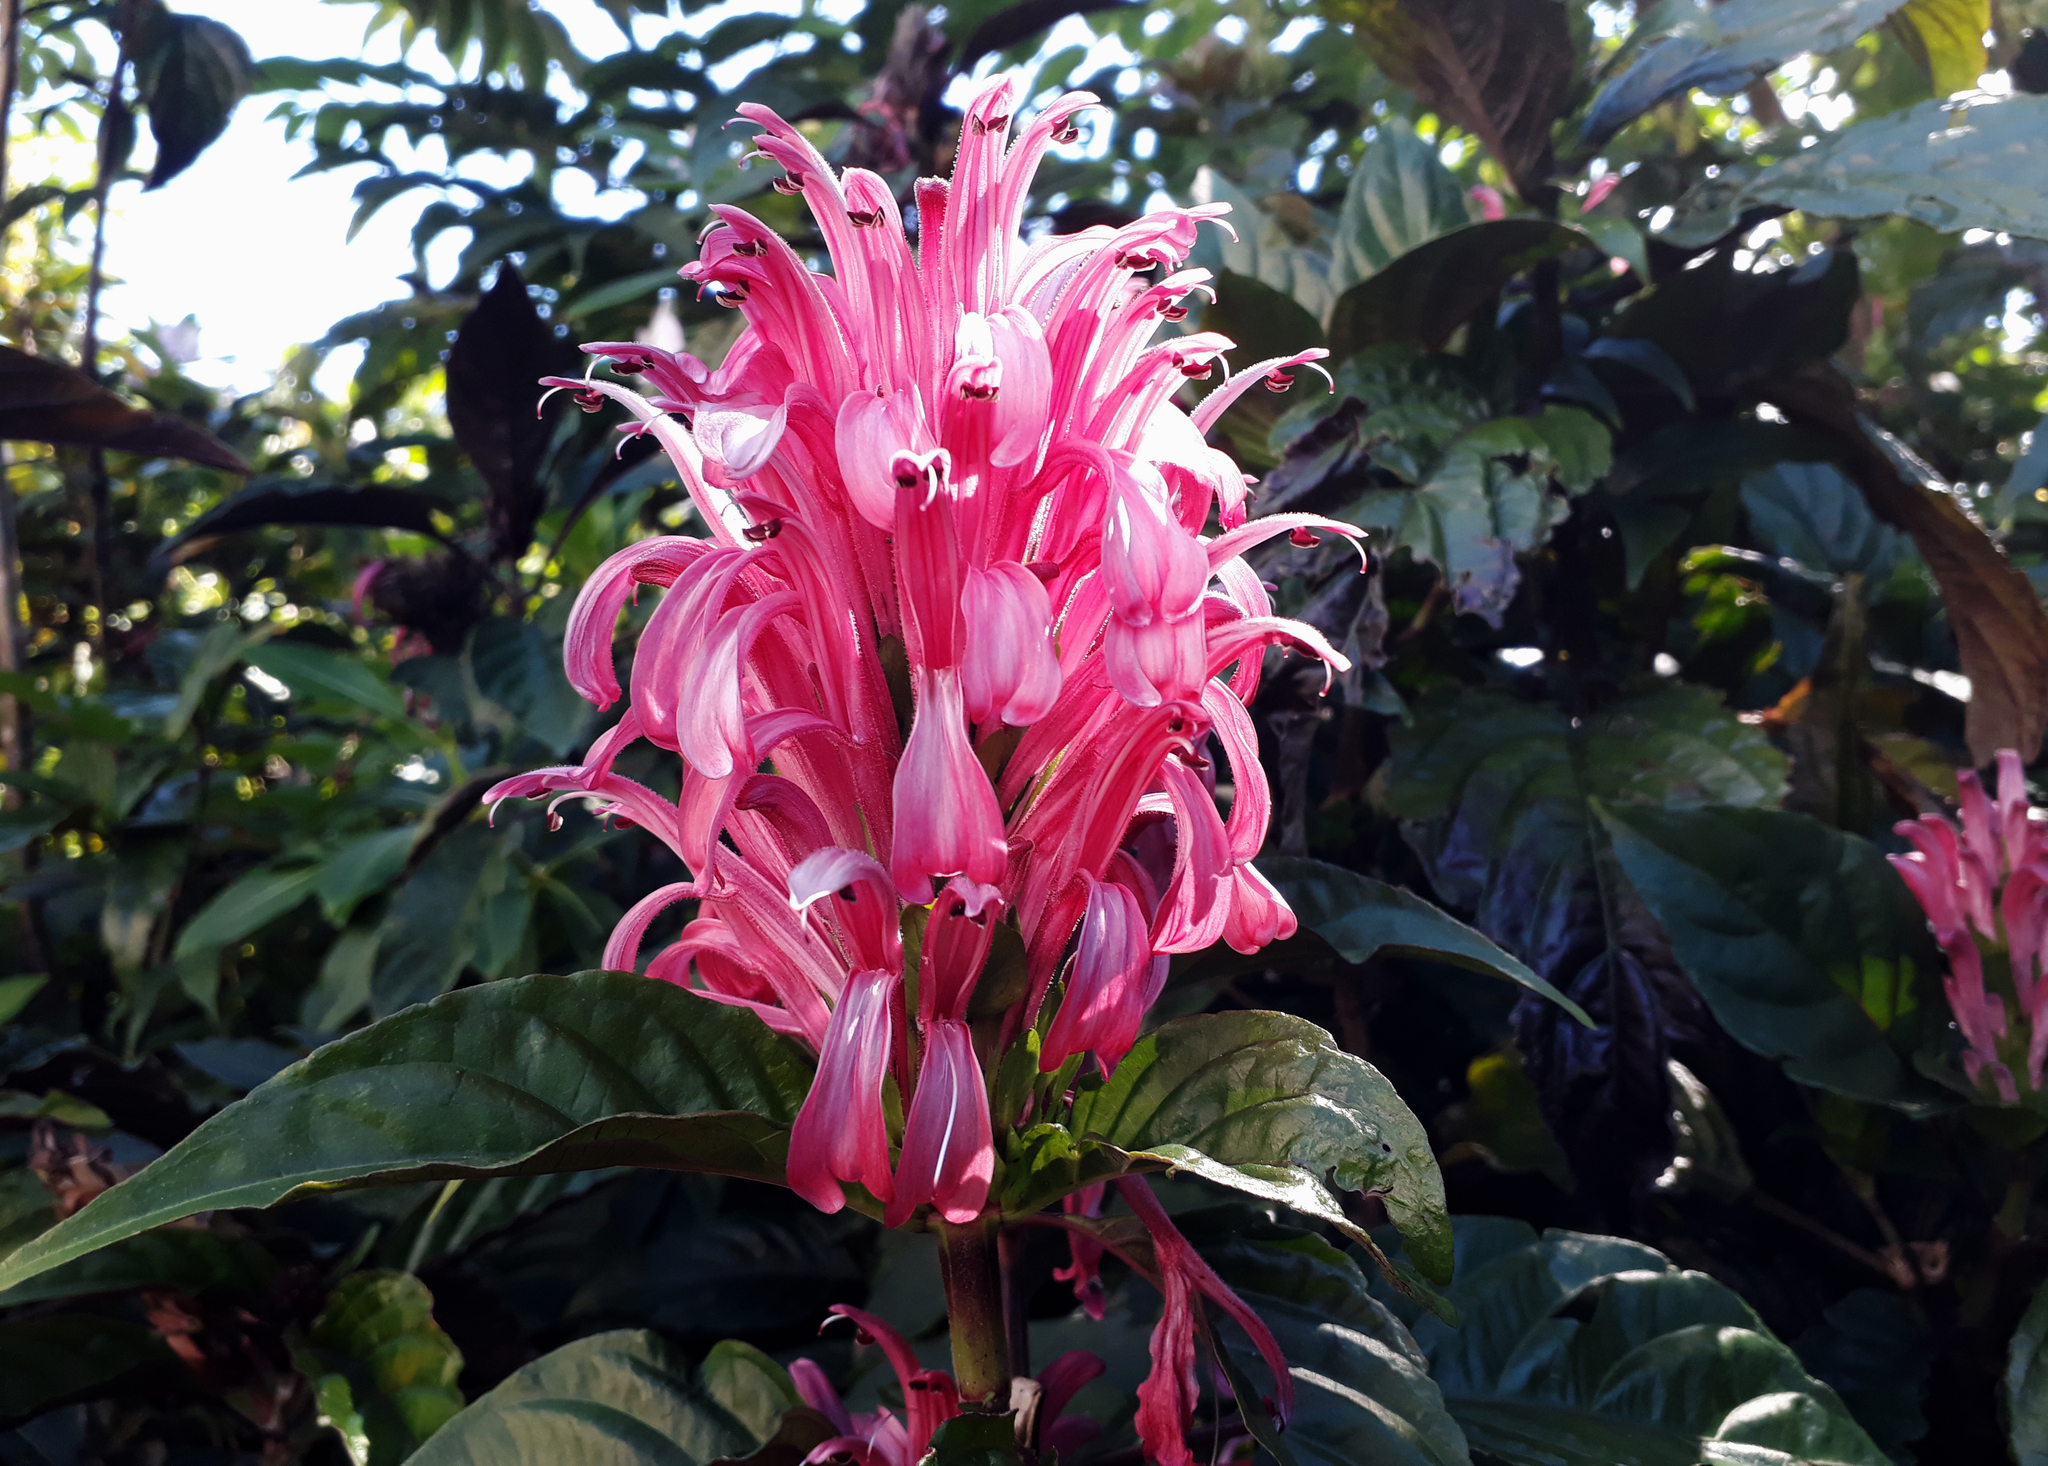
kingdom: Plantae
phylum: Tracheophyta
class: Magnoliopsida
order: Lamiales
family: Acanthaceae
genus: Justicia
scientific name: Justicia carnea
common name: Brazilian-plume
